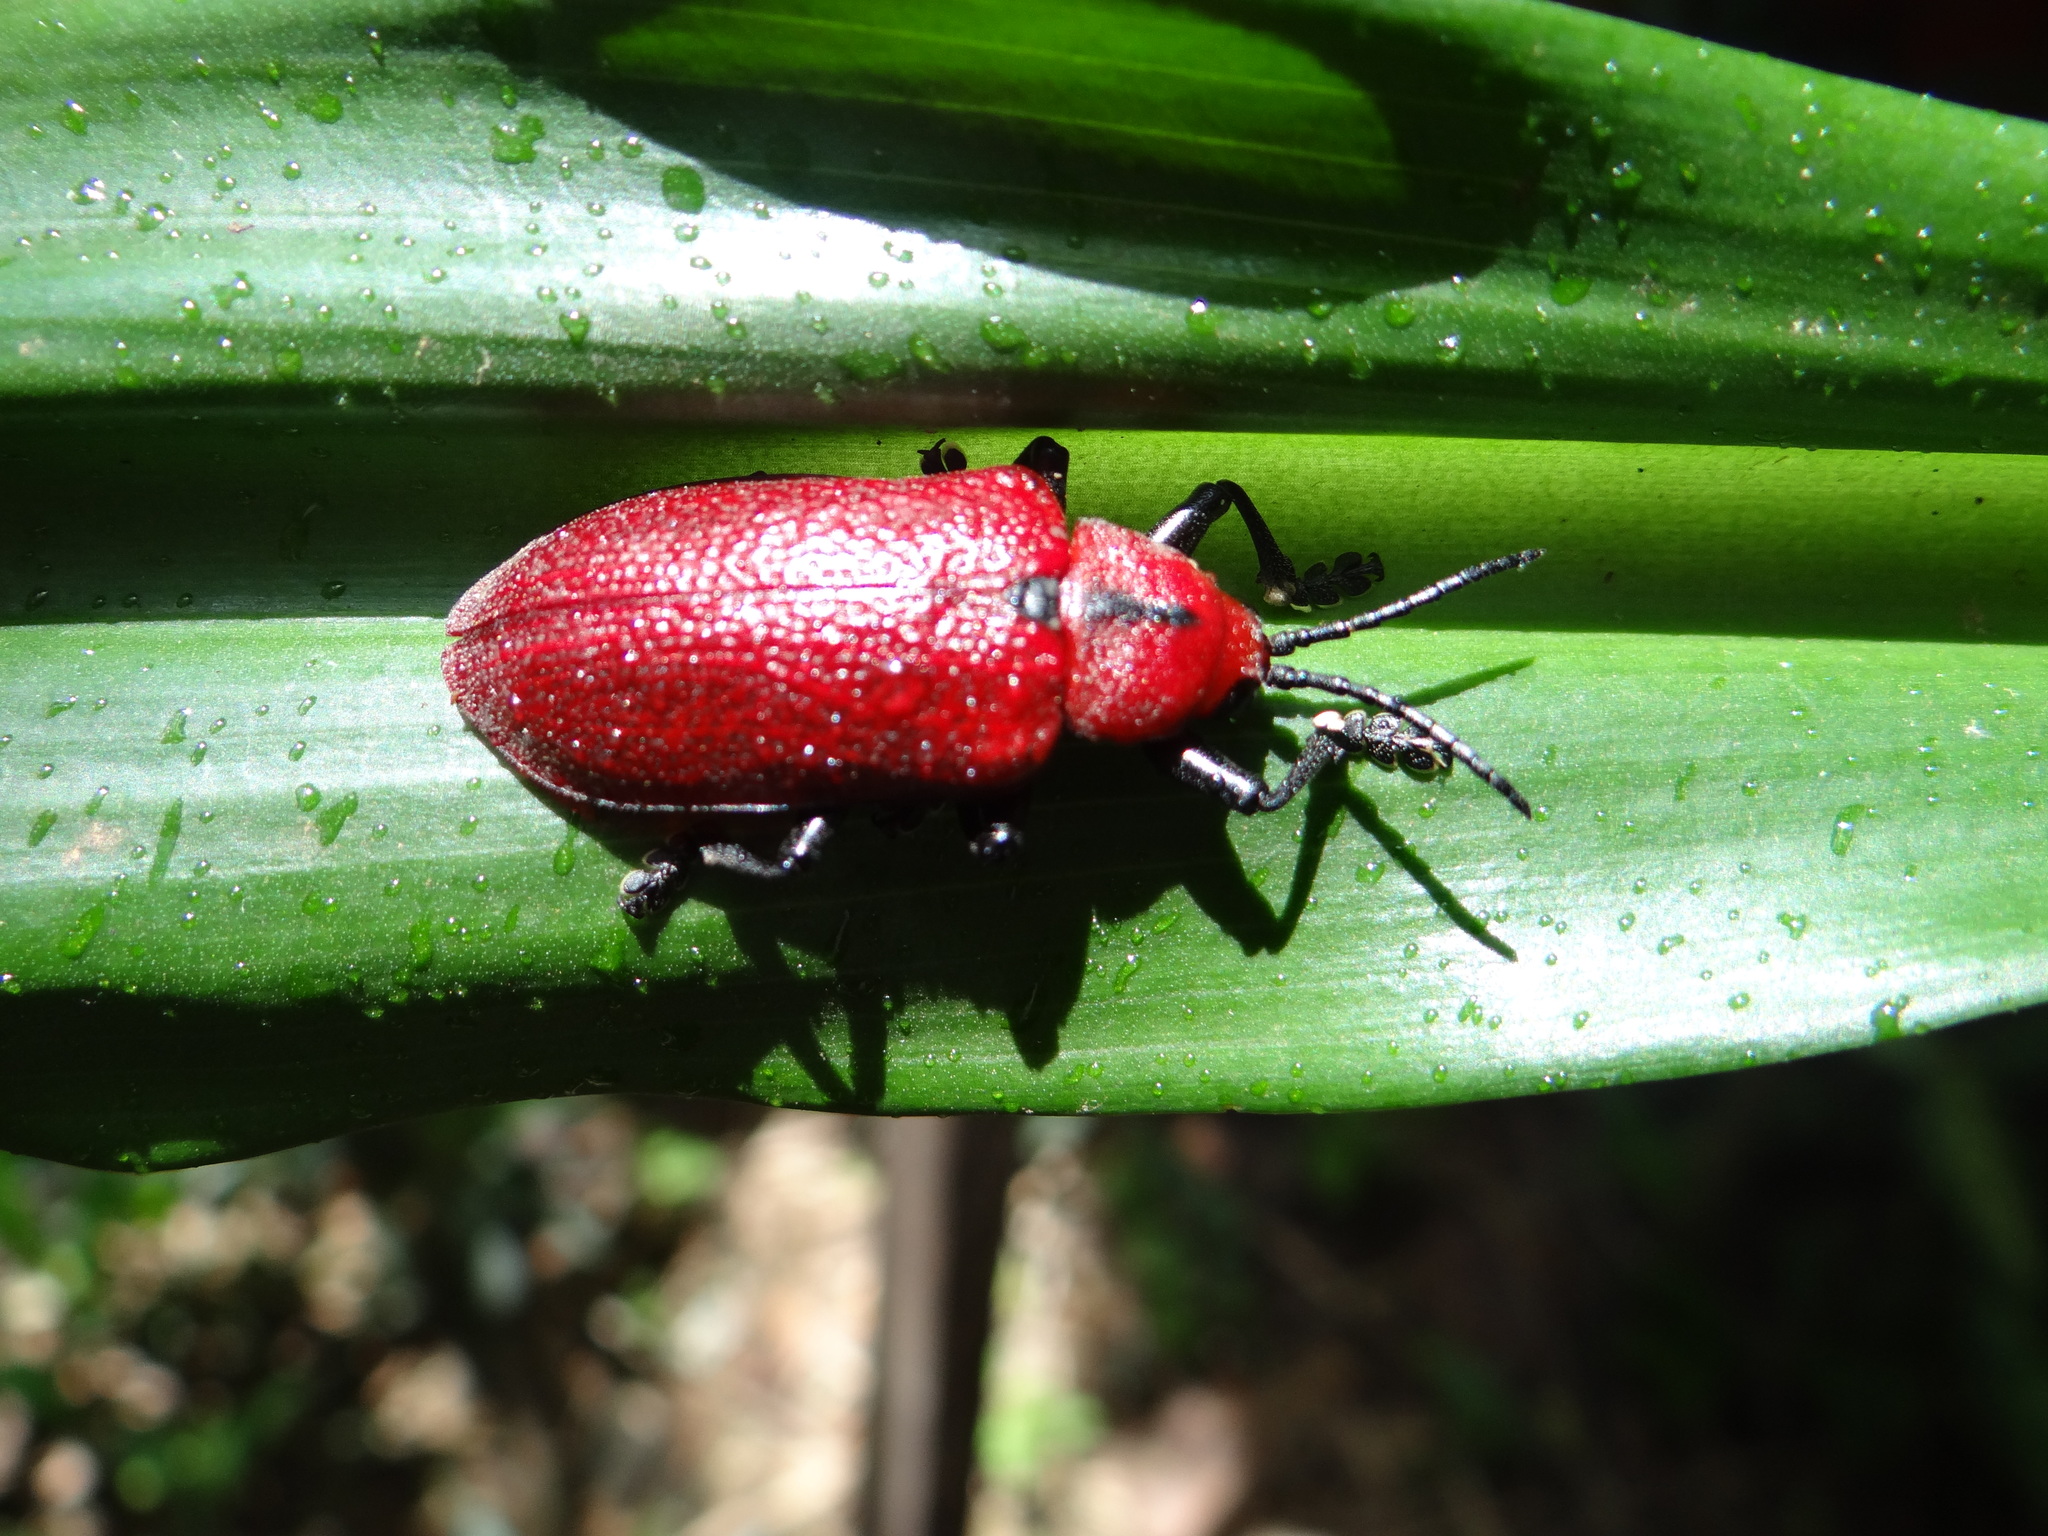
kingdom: Animalia
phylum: Arthropoda
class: Insecta
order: Coleoptera
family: Chrysomelidae
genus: Coraliomela
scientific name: Coraliomela vicina
